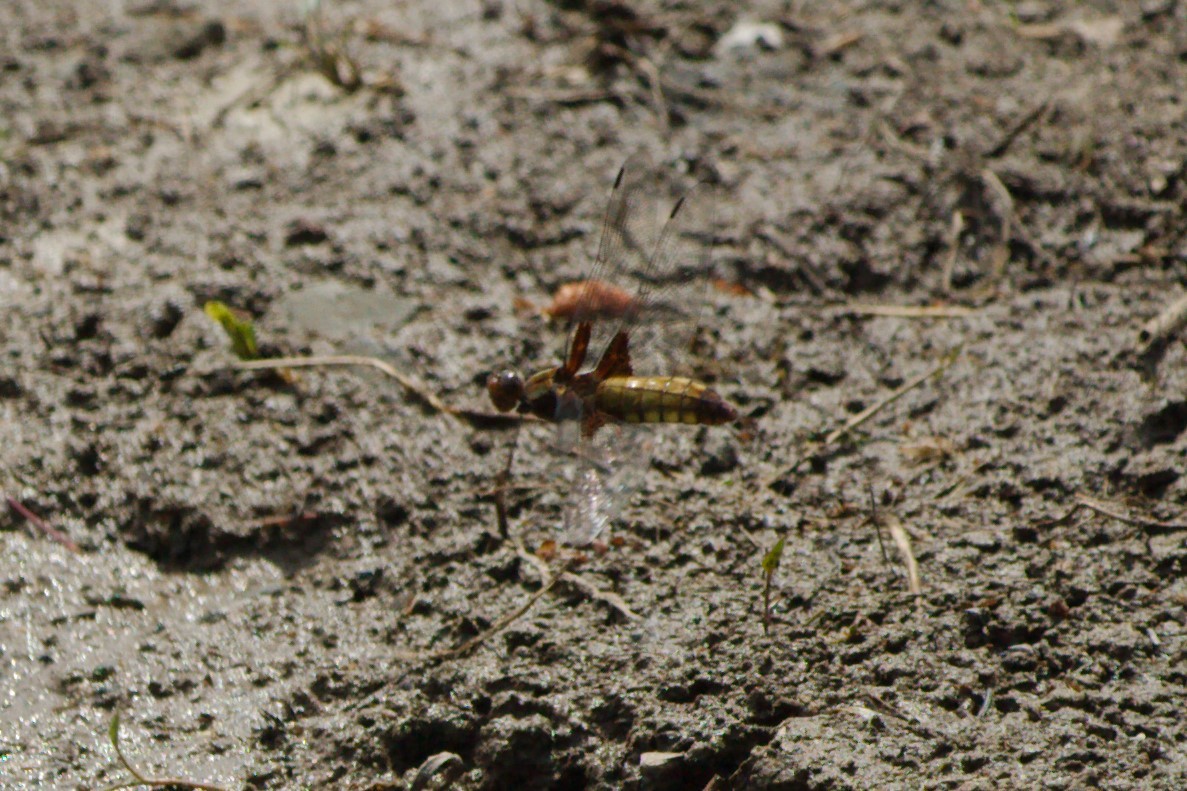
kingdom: Animalia
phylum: Arthropoda
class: Insecta
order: Odonata
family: Libellulidae
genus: Libellula
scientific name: Libellula depressa
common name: Broad-bodied chaser
